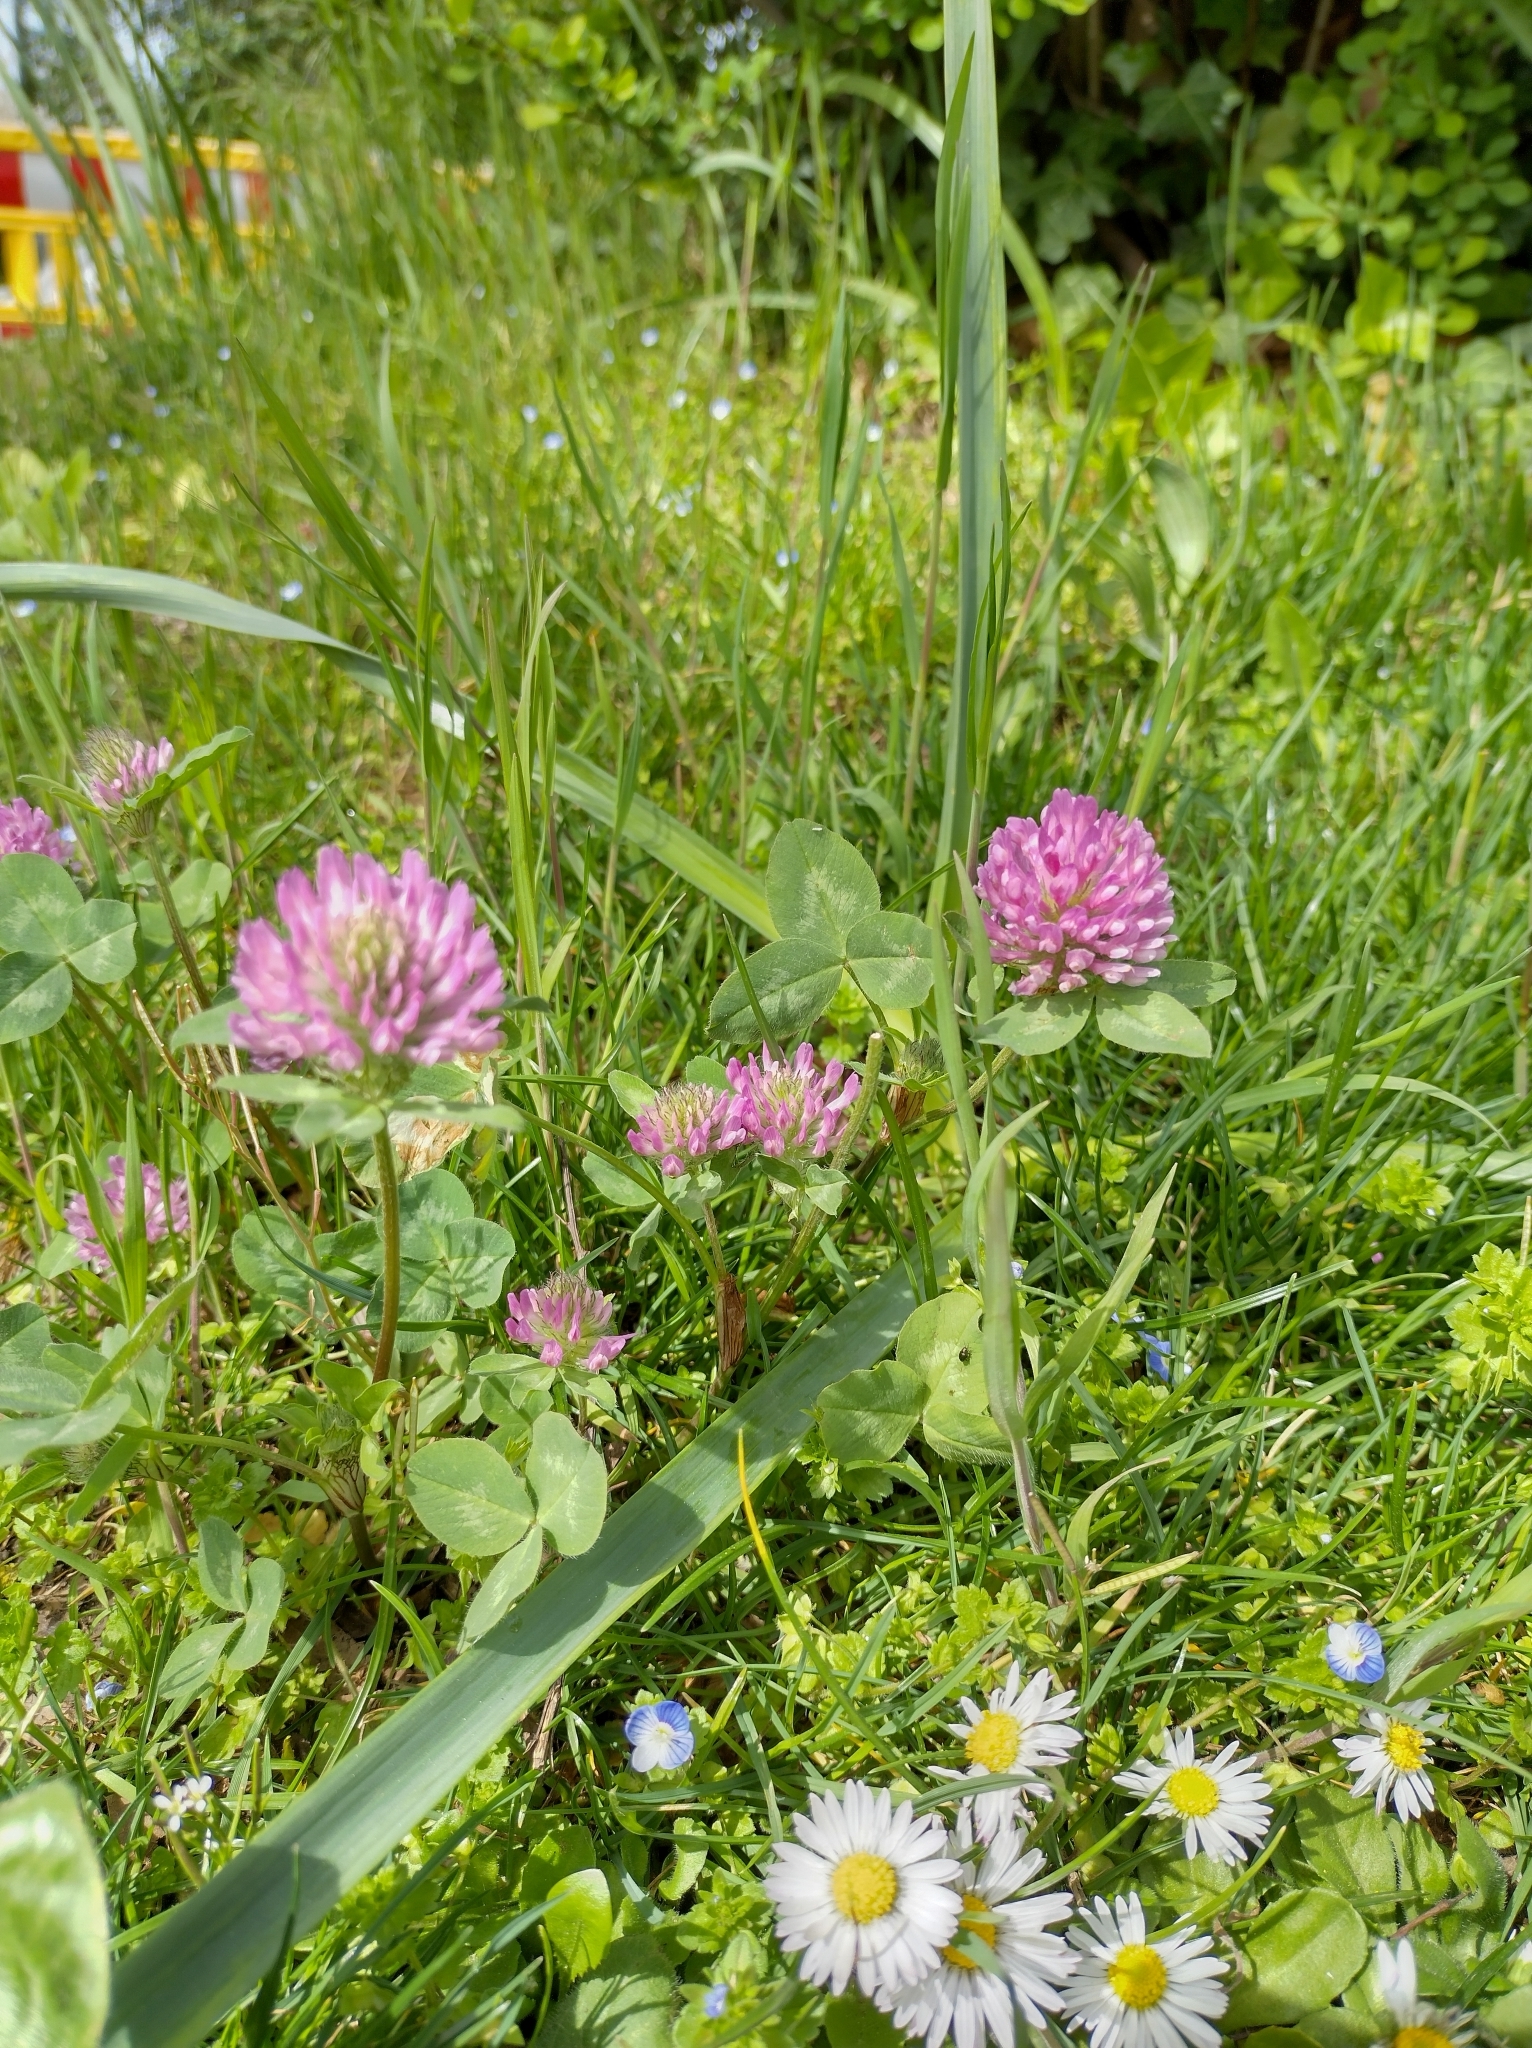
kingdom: Plantae
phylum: Tracheophyta
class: Magnoliopsida
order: Fabales
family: Fabaceae
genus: Trifolium
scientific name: Trifolium pratense
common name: Red clover
